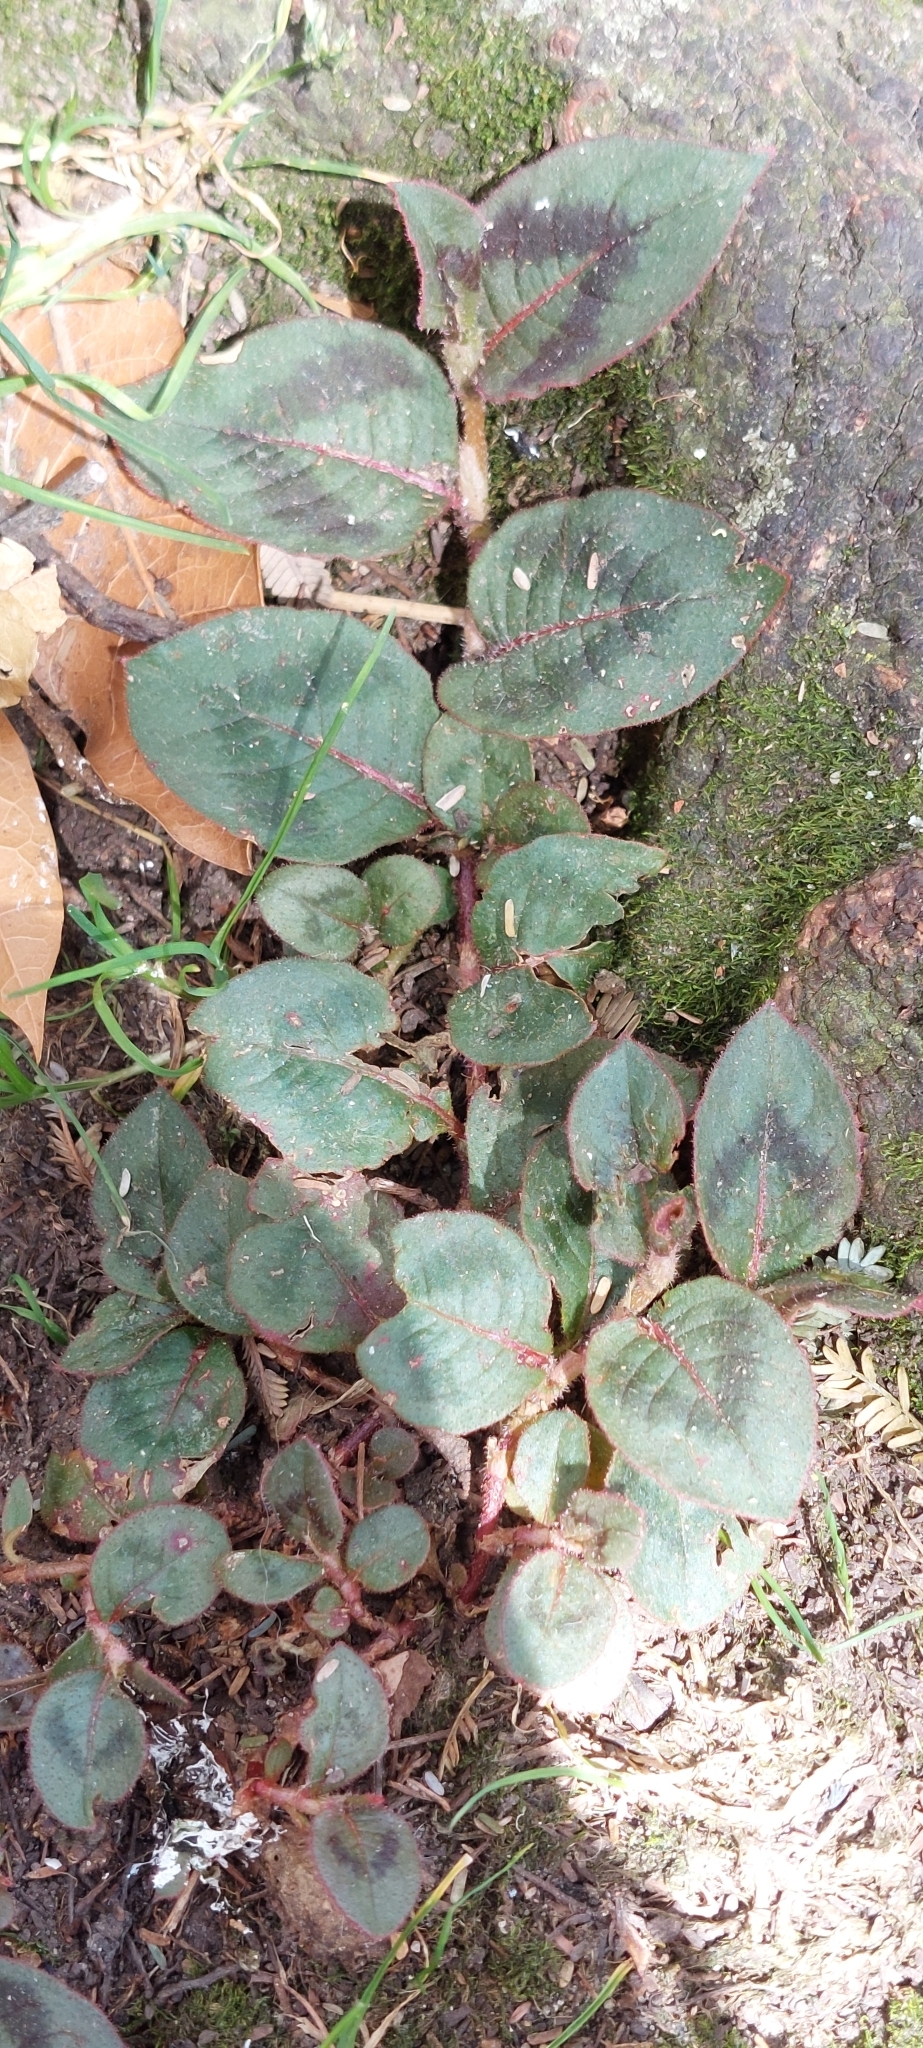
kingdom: Plantae
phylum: Tracheophyta
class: Magnoliopsida
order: Caryophyllales
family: Polygonaceae
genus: Persicaria
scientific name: Persicaria capitata
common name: Pinkhead smartweed
